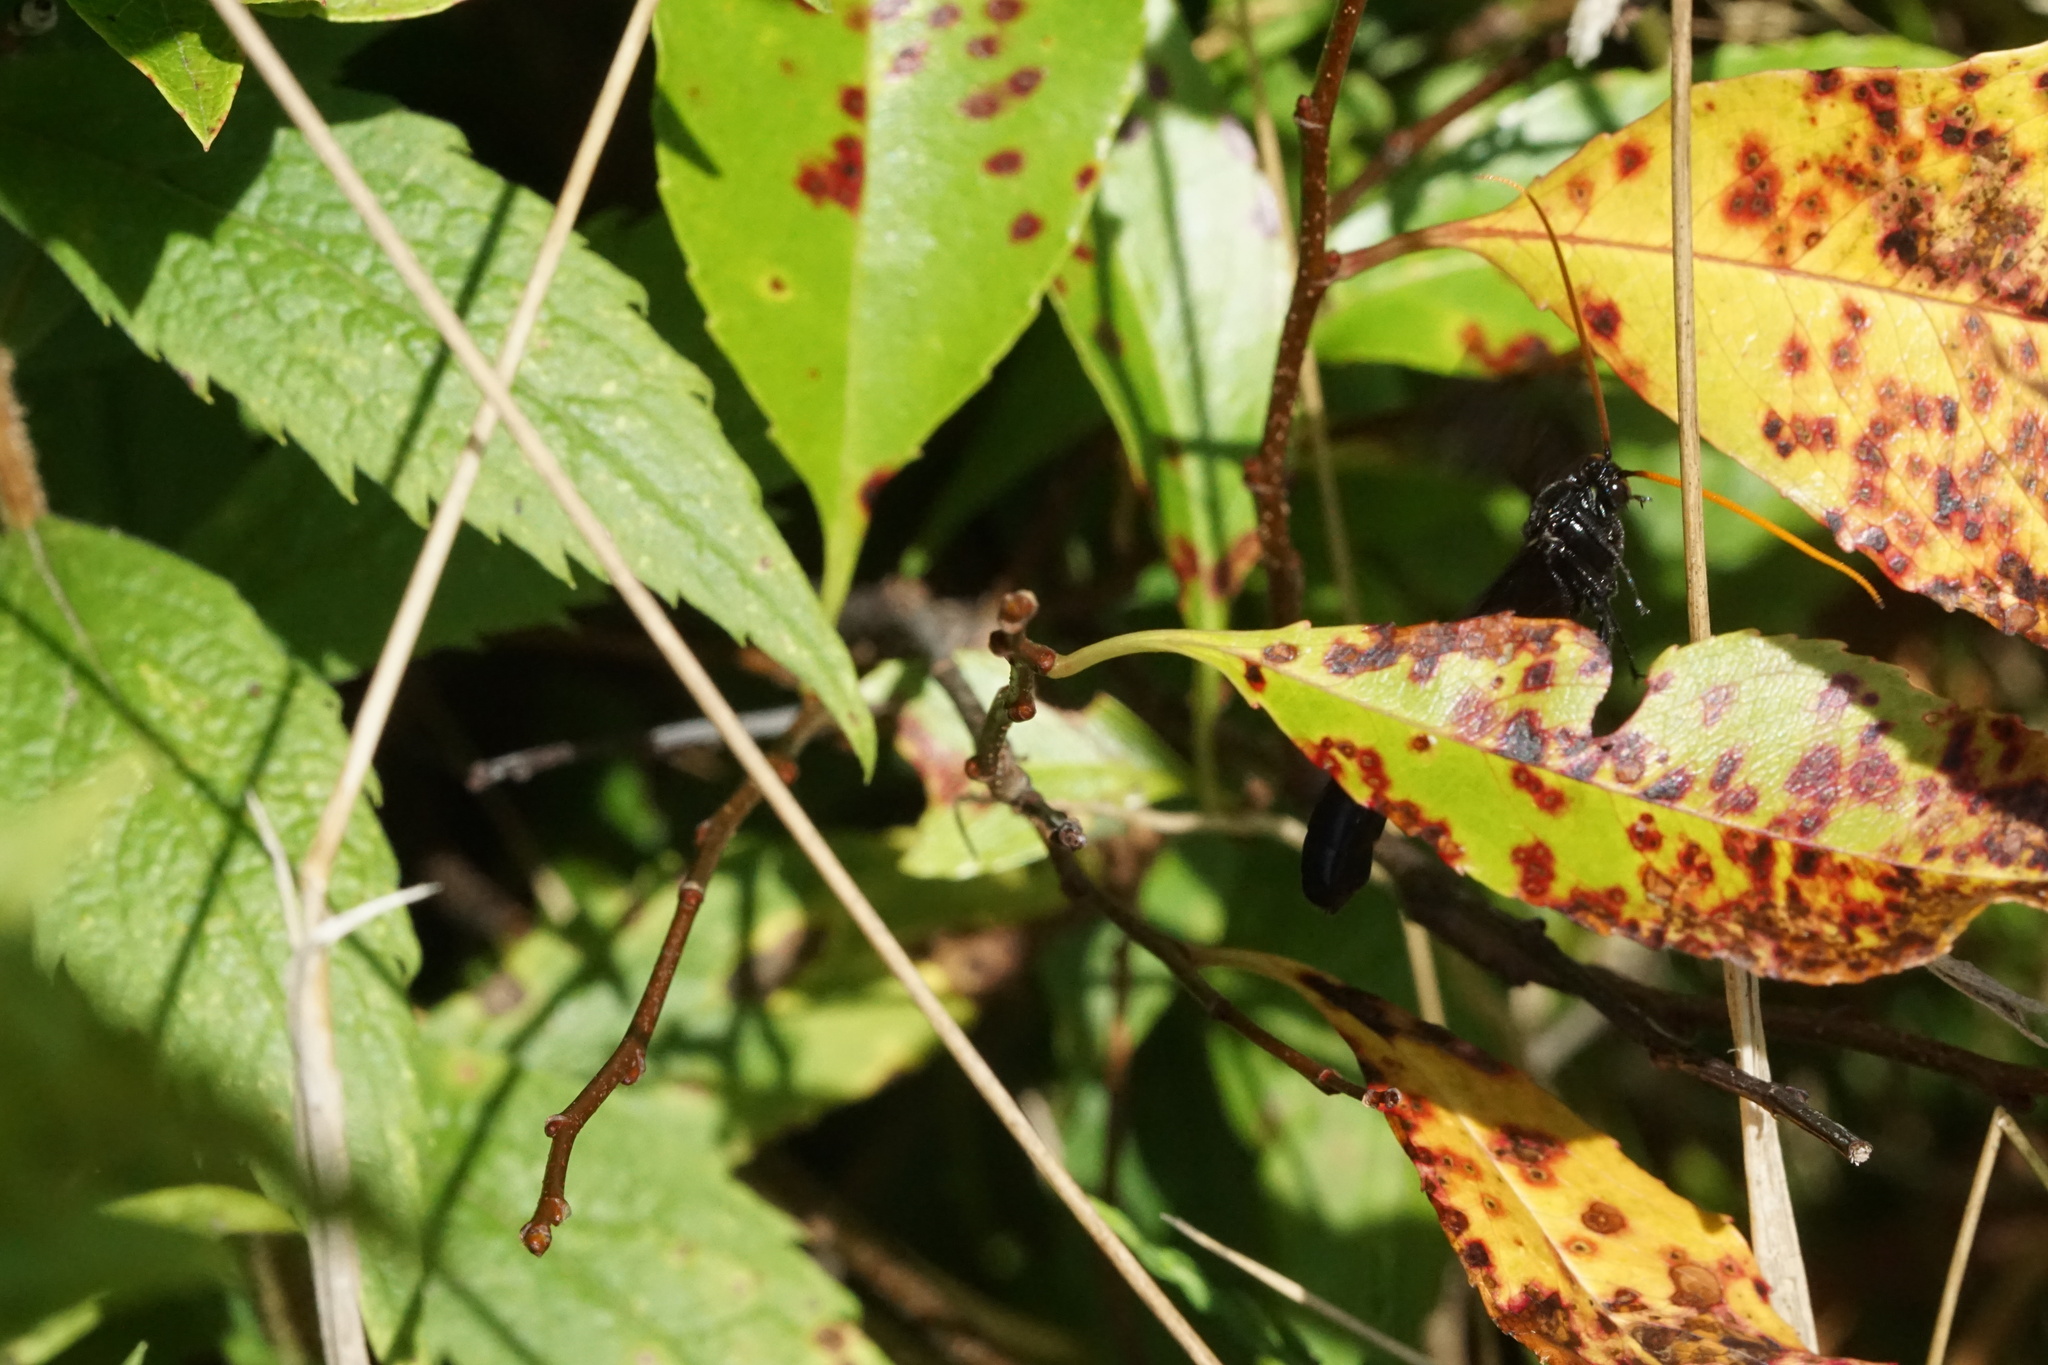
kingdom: Animalia
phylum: Arthropoda
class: Insecta
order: Hymenoptera
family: Ichneumonidae
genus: Thyreodon
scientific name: Thyreodon atricolor
